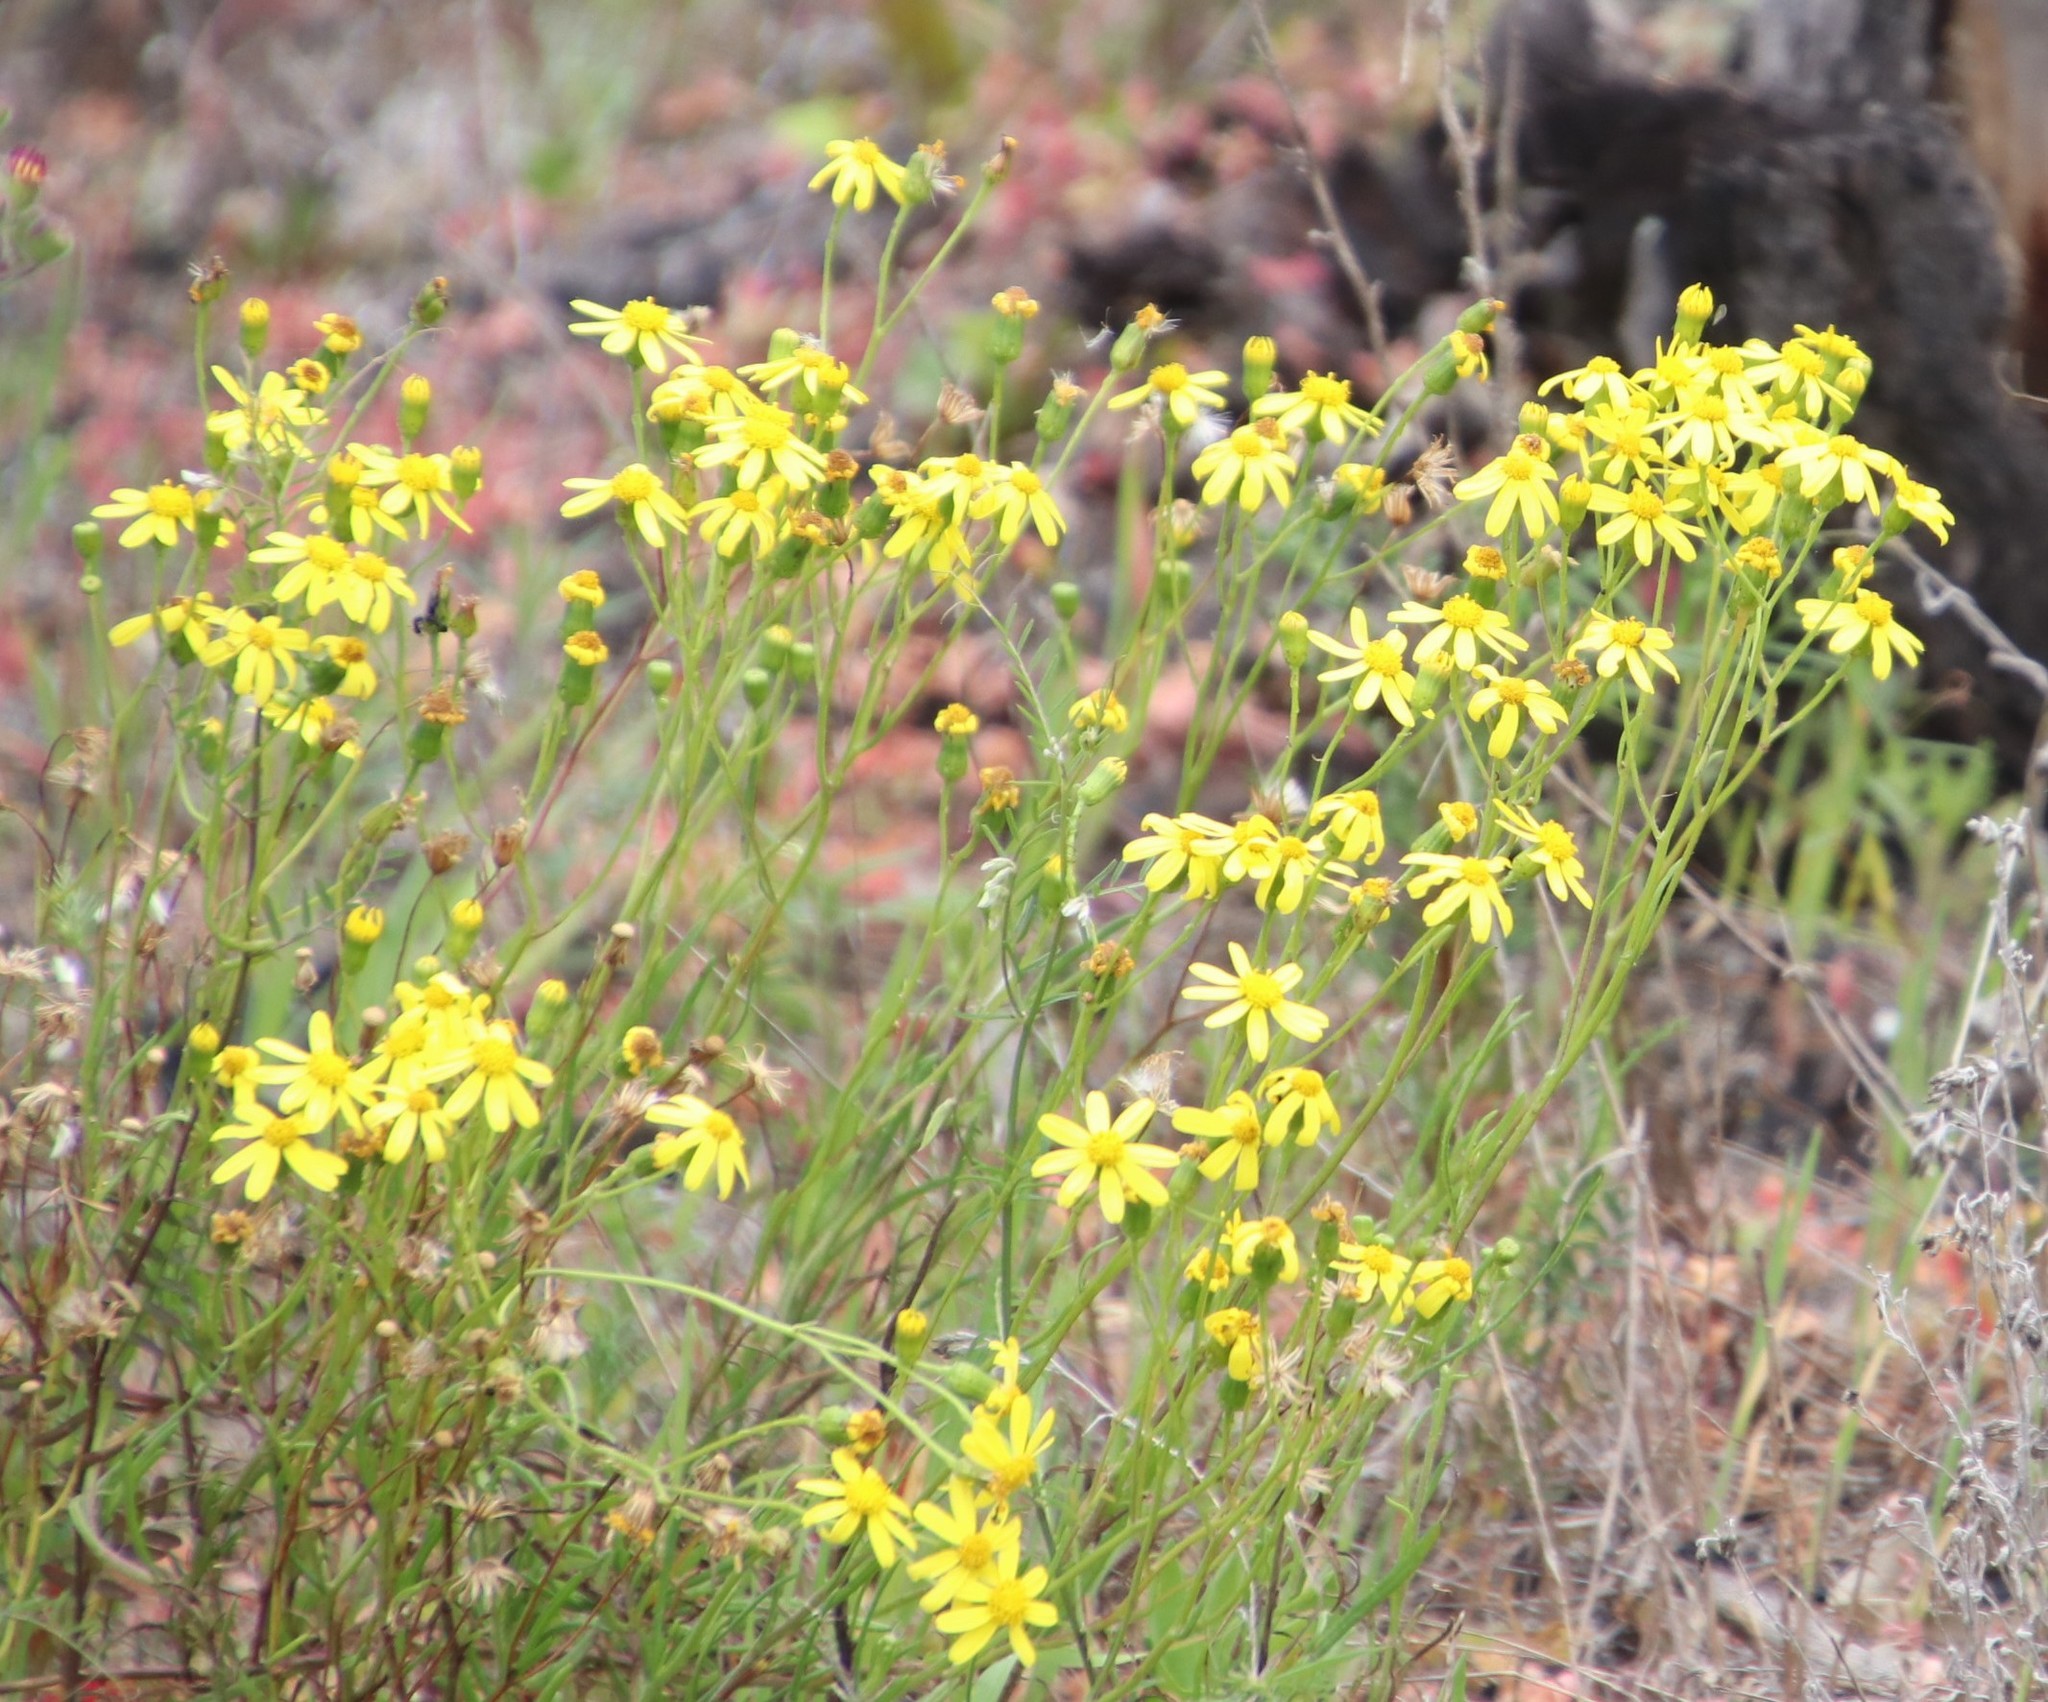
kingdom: Plantae
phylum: Tracheophyta
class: Magnoliopsida
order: Asterales
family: Asteraceae
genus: Senecio
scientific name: Senecio burchellii
